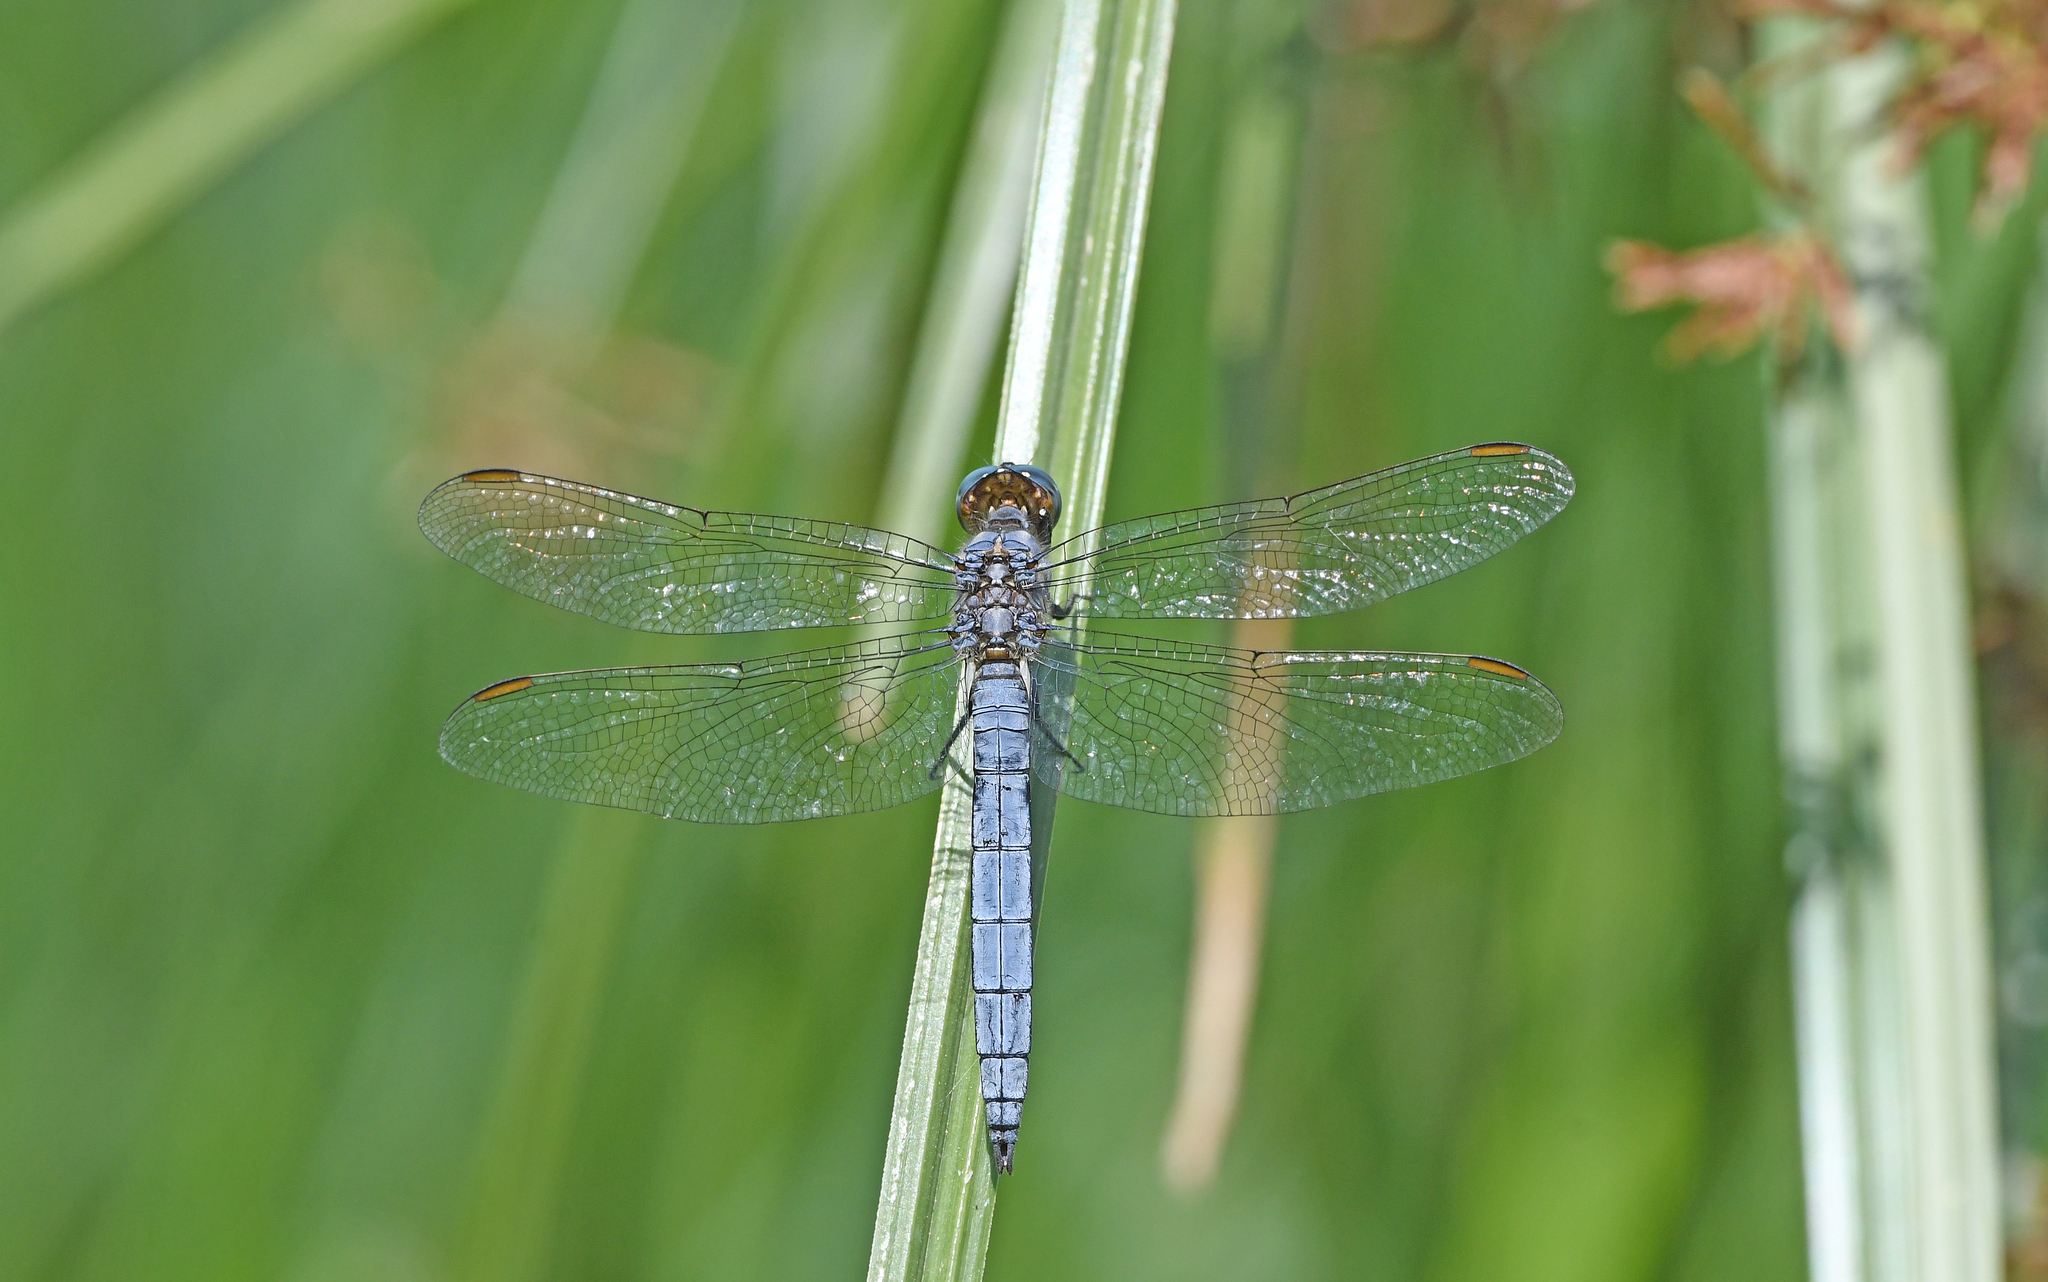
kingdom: Animalia
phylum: Arthropoda
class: Insecta
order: Odonata
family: Libellulidae
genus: Orthetrum
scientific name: Orthetrum coerulescens
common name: Keeled skimmer
